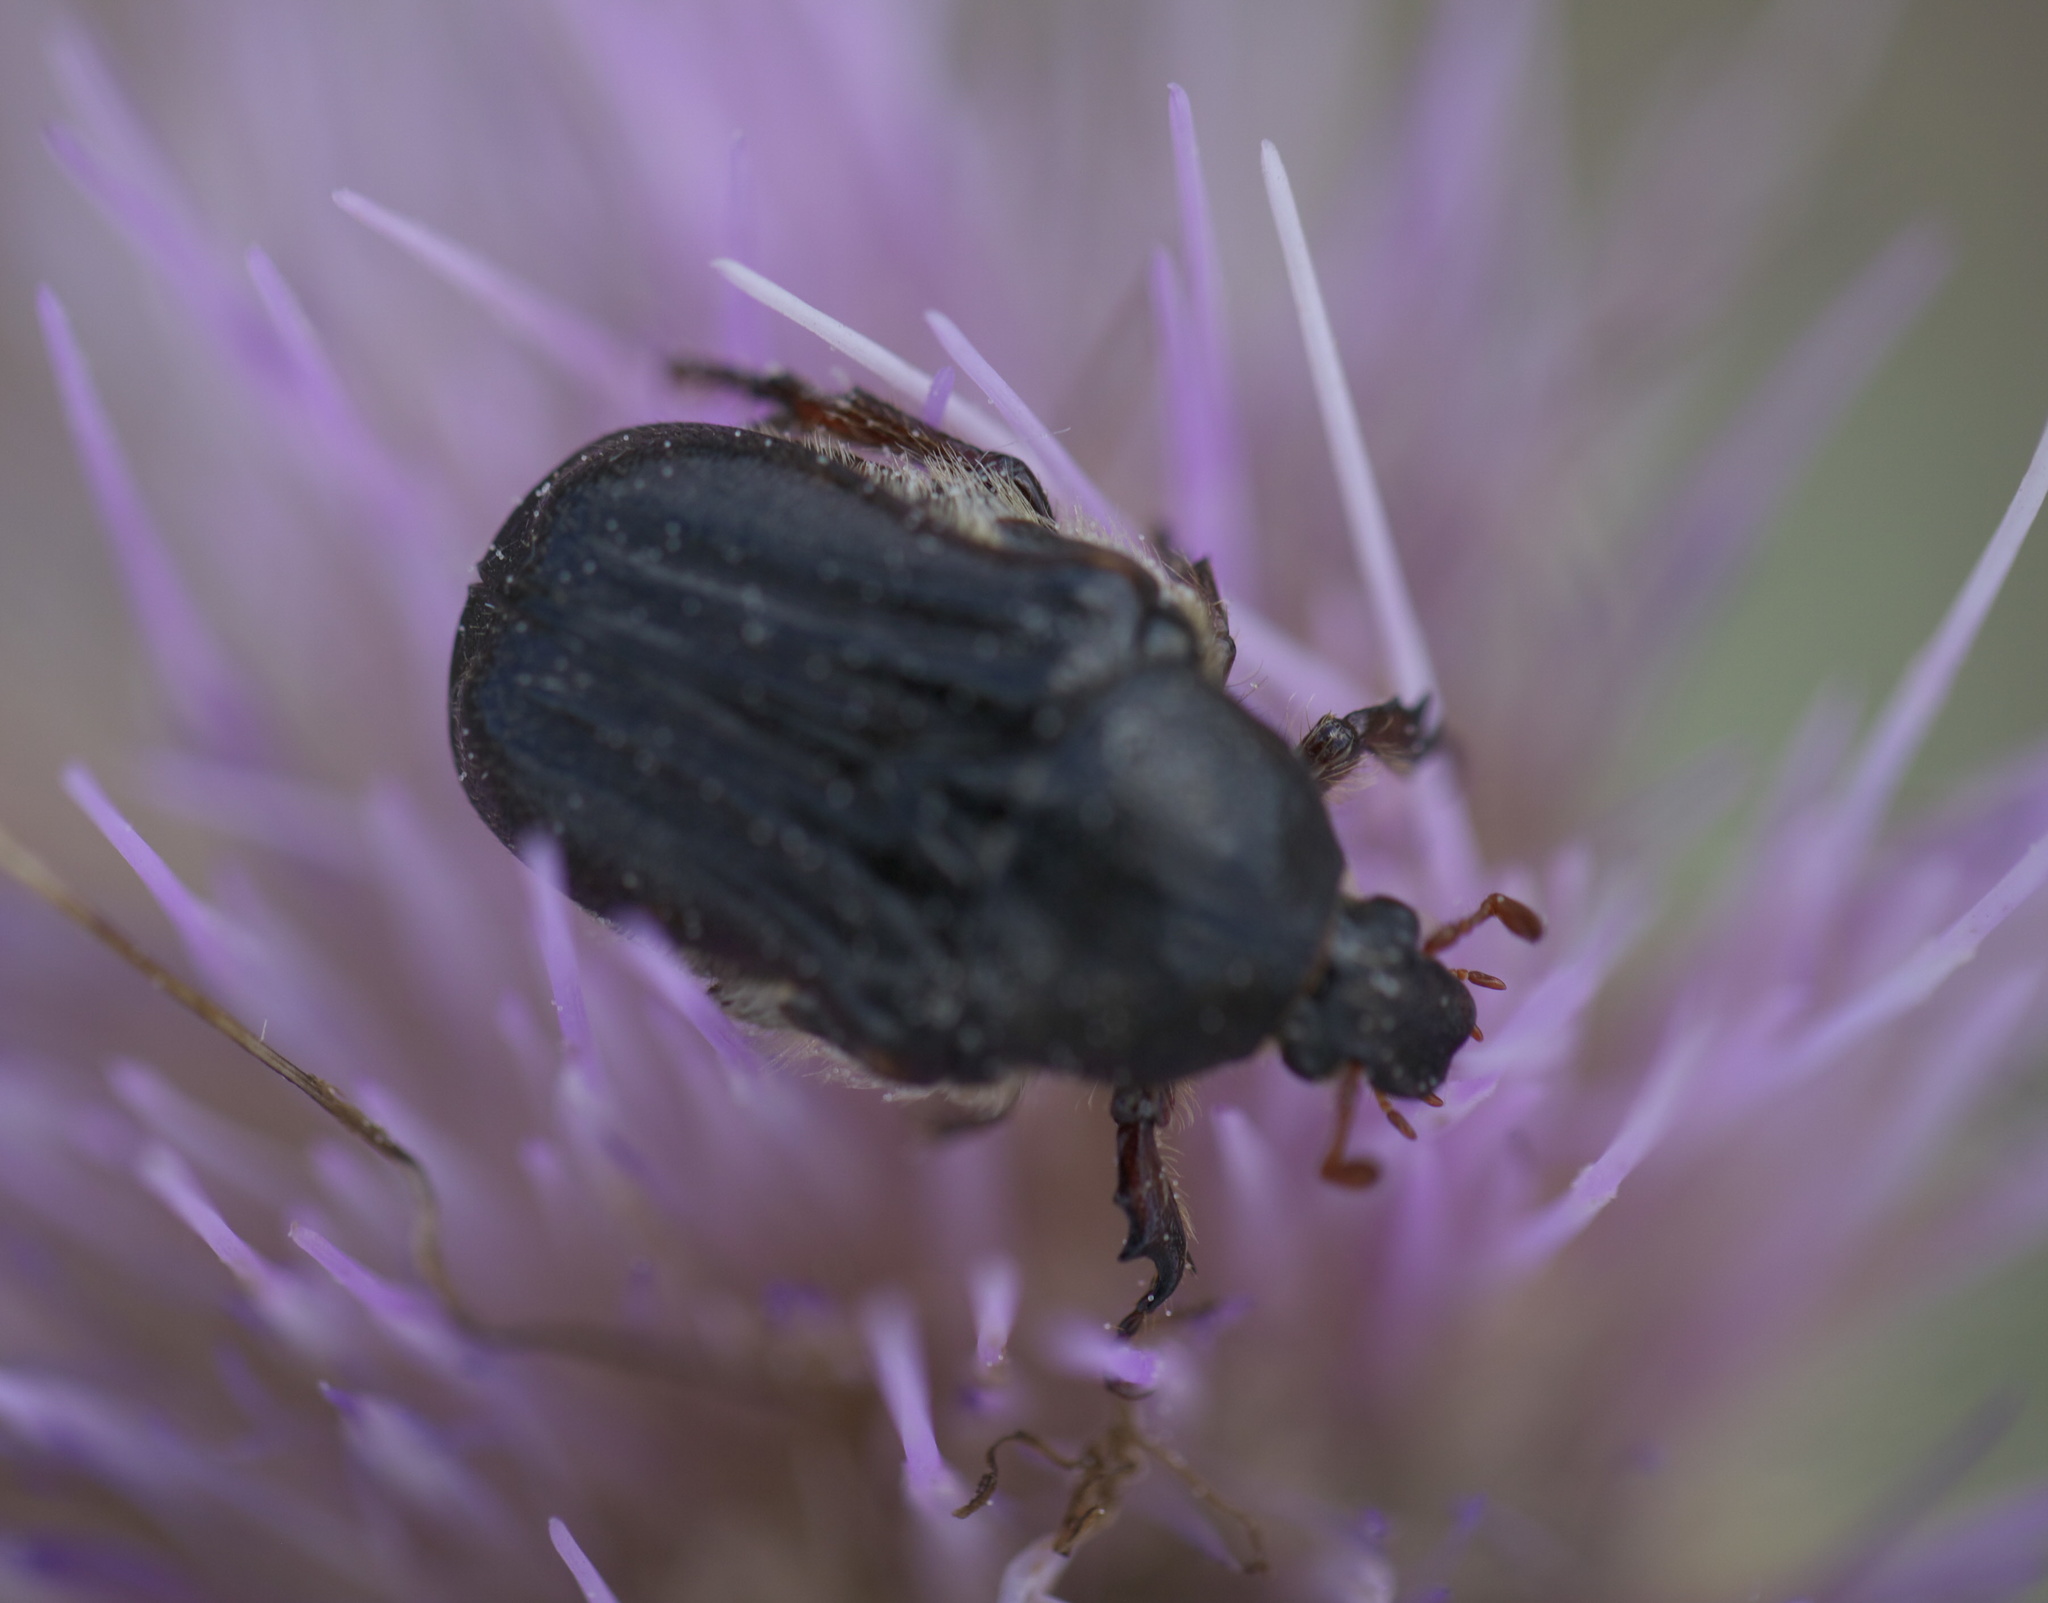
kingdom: Animalia
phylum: Arthropoda
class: Insecta
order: Coleoptera
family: Scarabaeidae
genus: Euphoria
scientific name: Euphoria kernii
